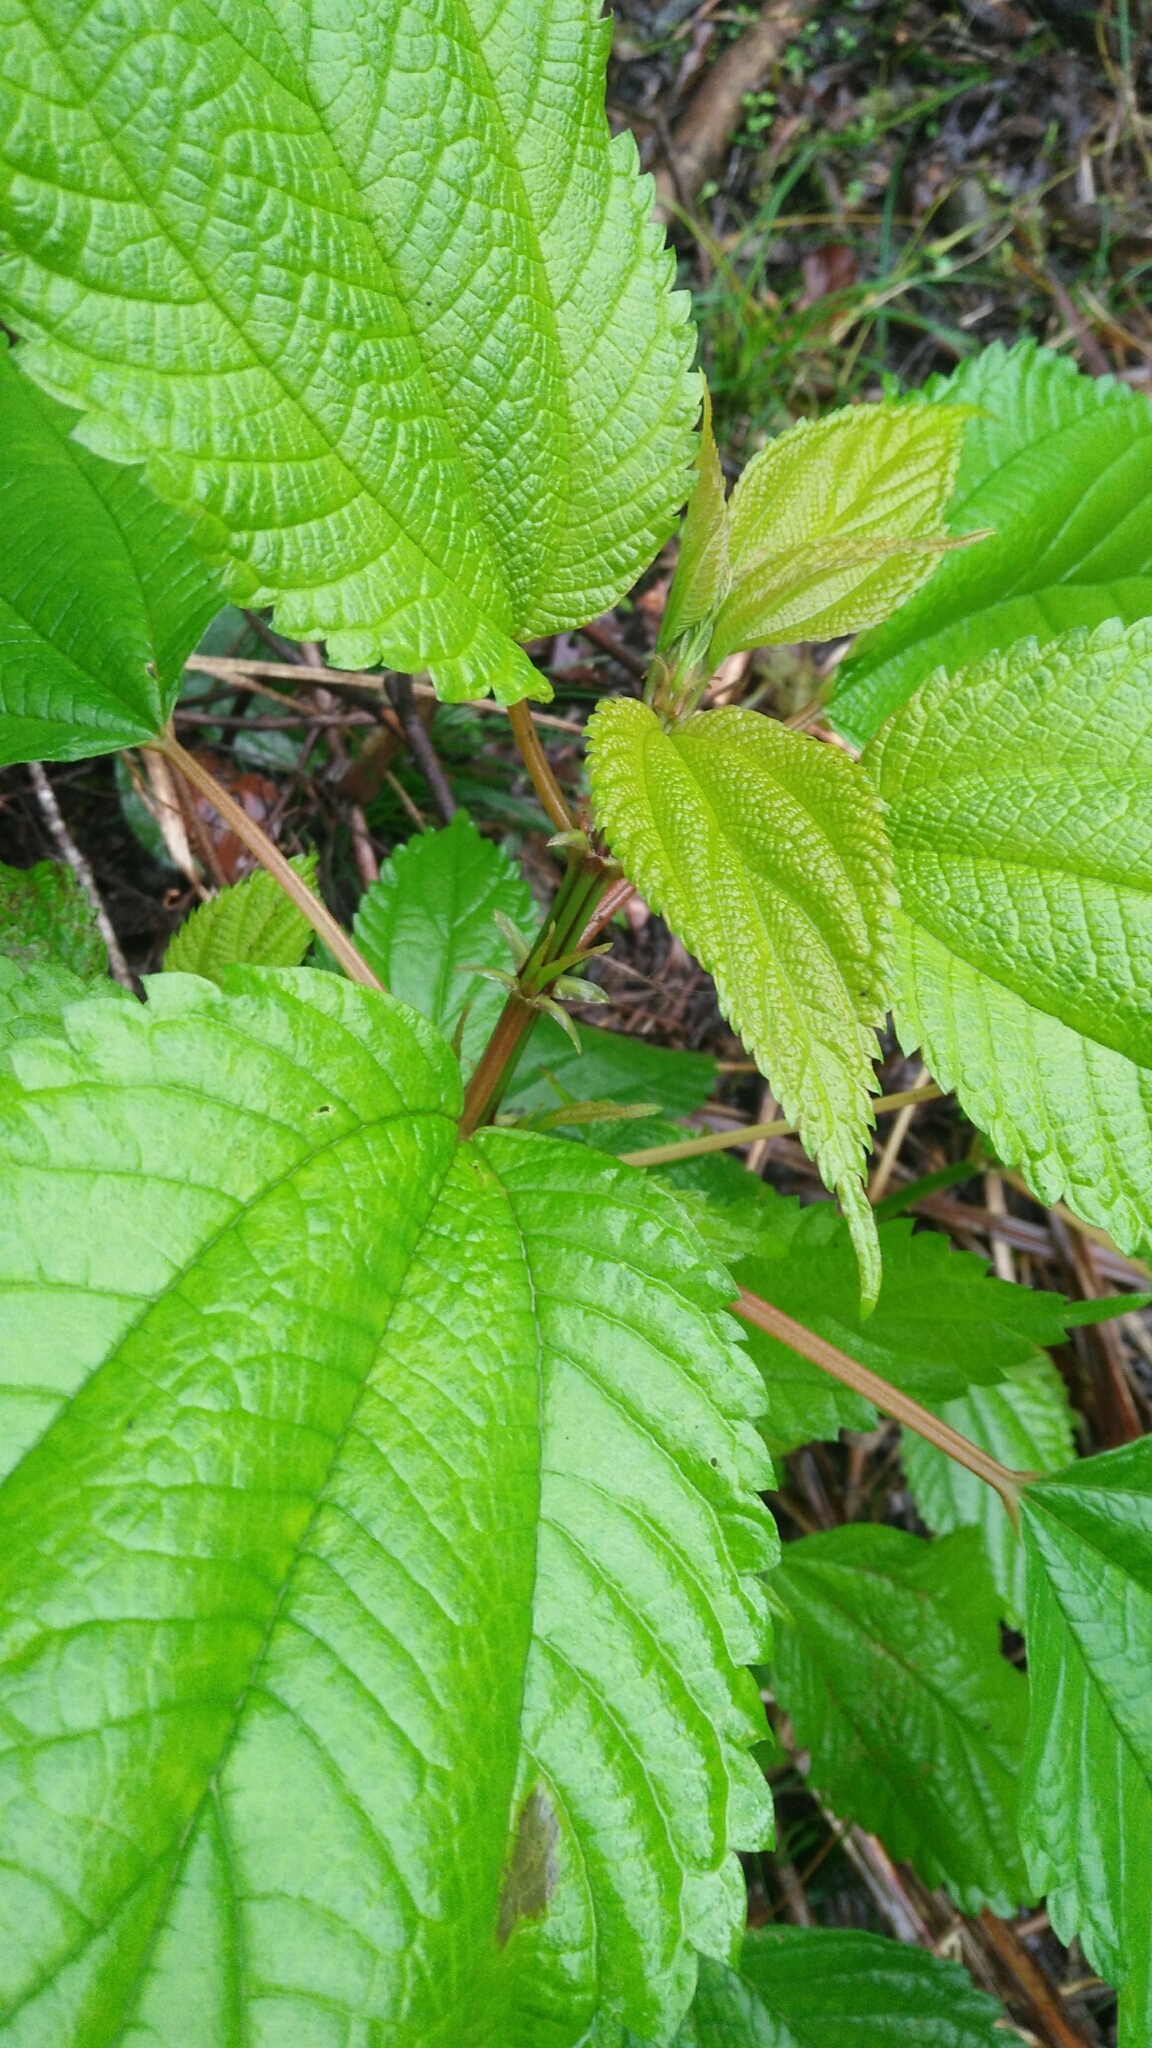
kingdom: Plantae
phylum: Tracheophyta
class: Magnoliopsida
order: Rosales
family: Urticaceae
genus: Boehmeria
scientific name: Boehmeria sieboldiana
